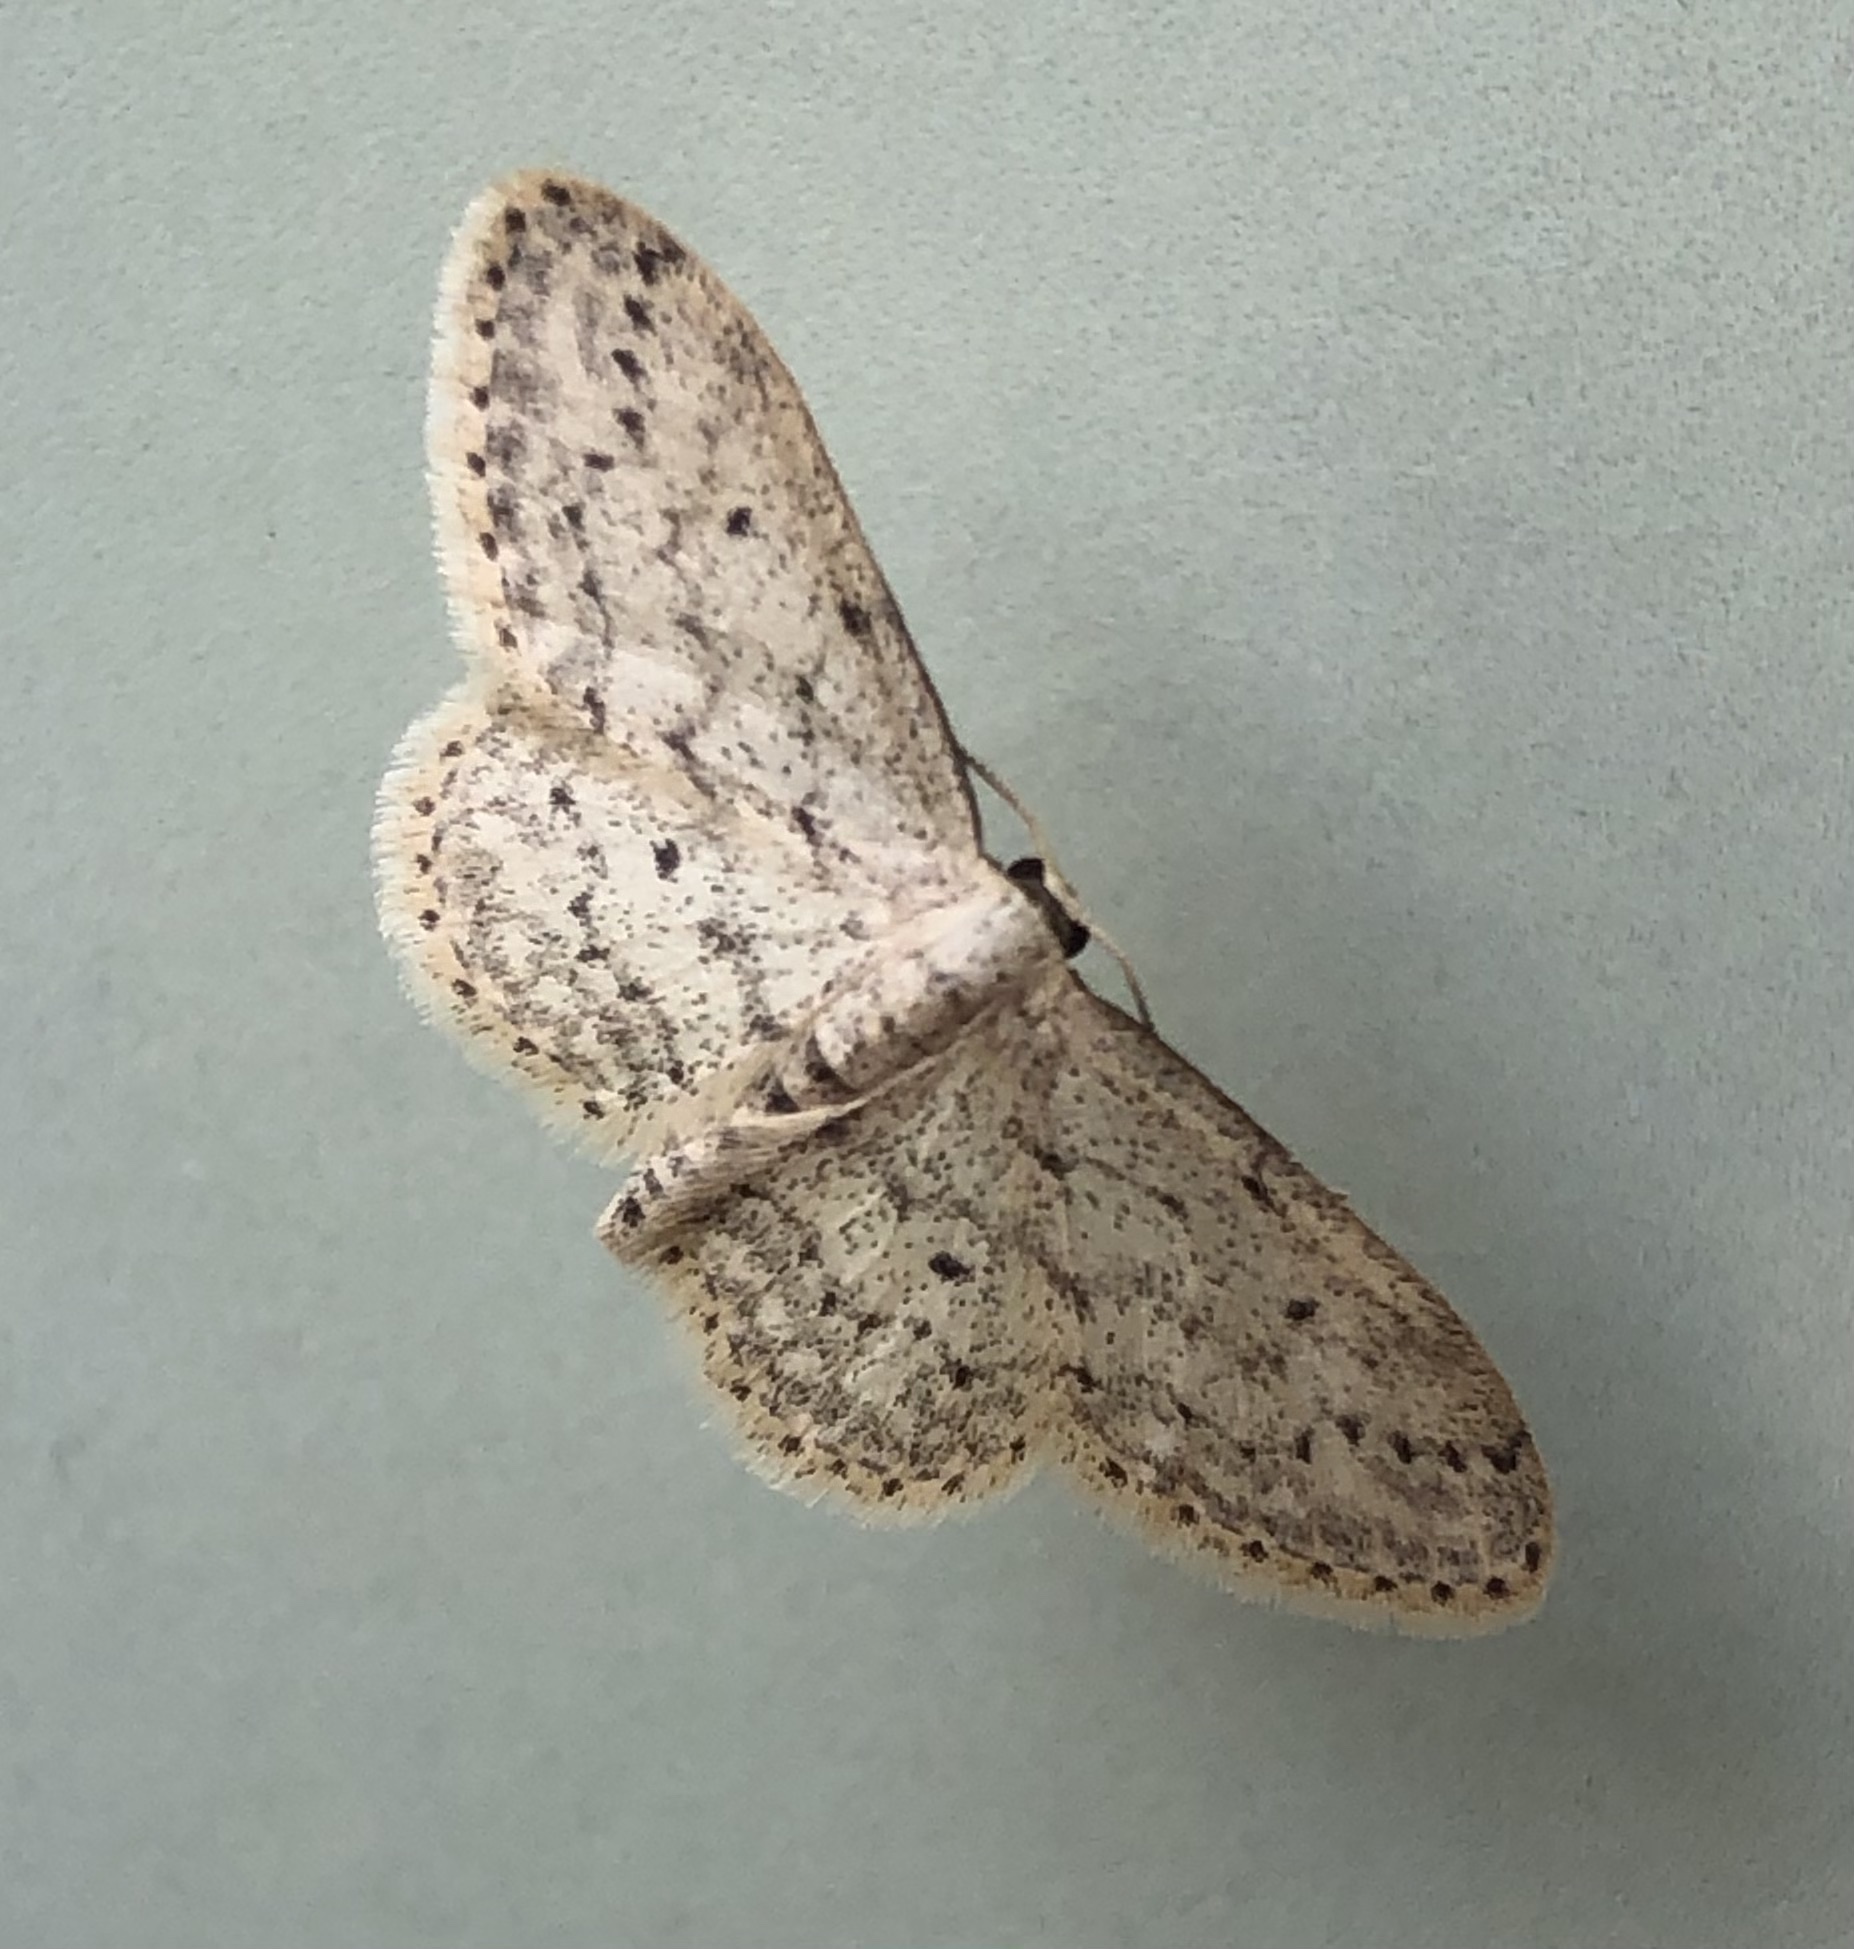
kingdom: Animalia
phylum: Arthropoda
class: Insecta
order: Lepidoptera
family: Geometridae
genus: Idaea
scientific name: Idaea seriata
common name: Small dusty wave
